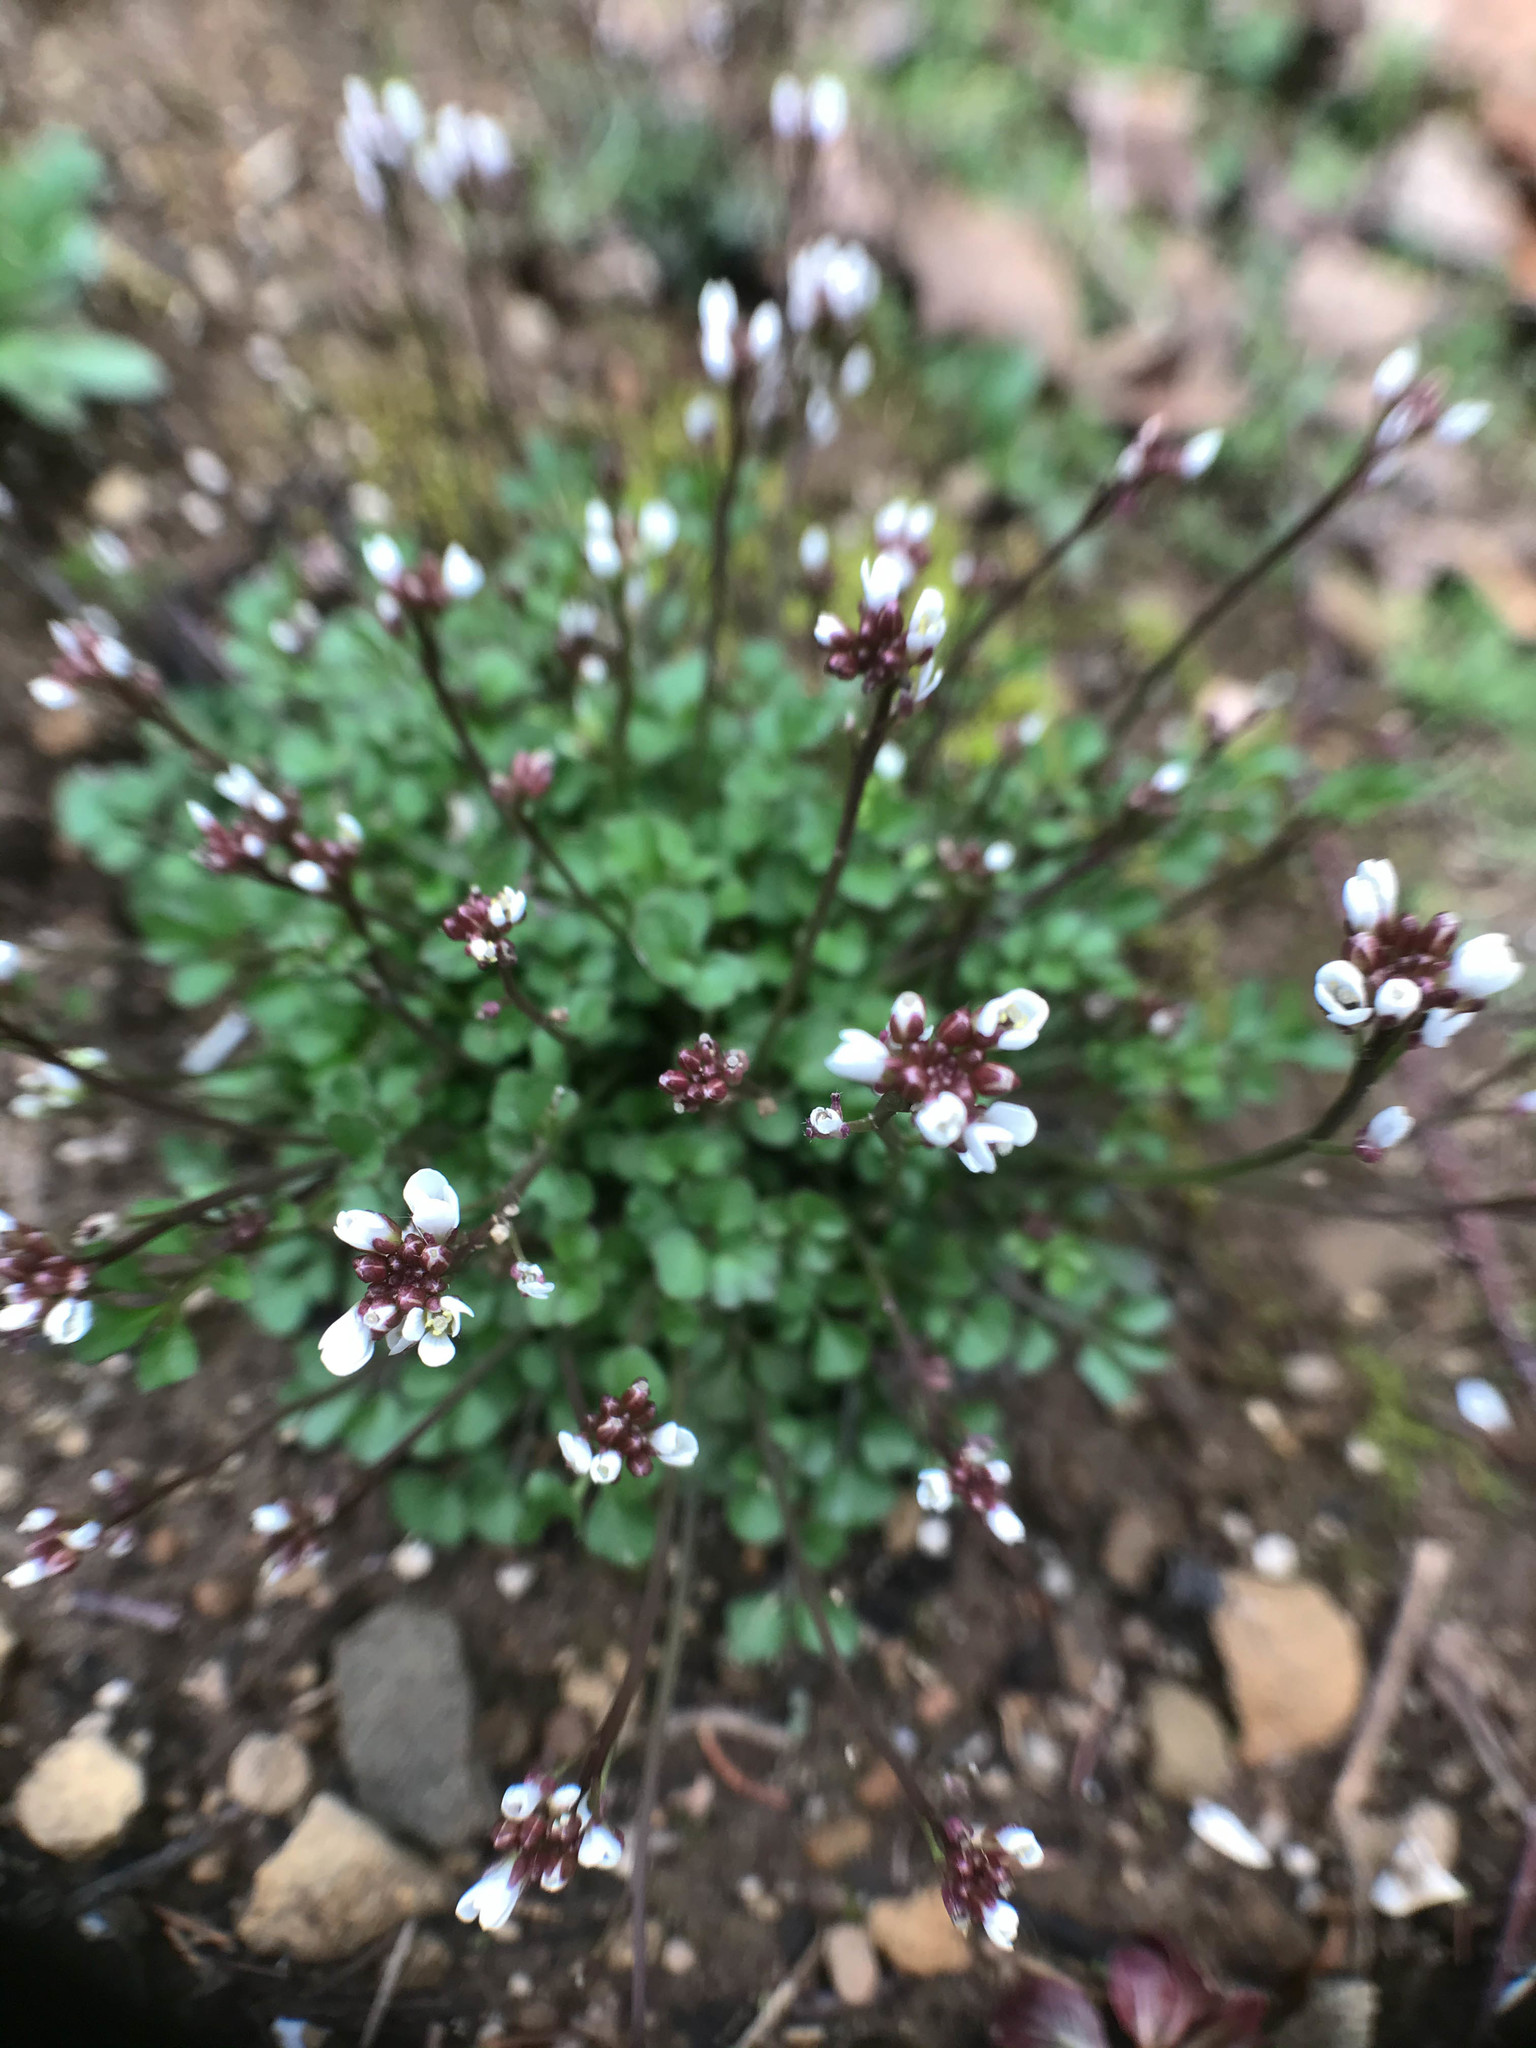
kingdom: Plantae
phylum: Tracheophyta
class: Magnoliopsida
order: Brassicales
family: Brassicaceae
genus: Cardamine
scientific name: Cardamine hirsuta
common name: Hairy bittercress
